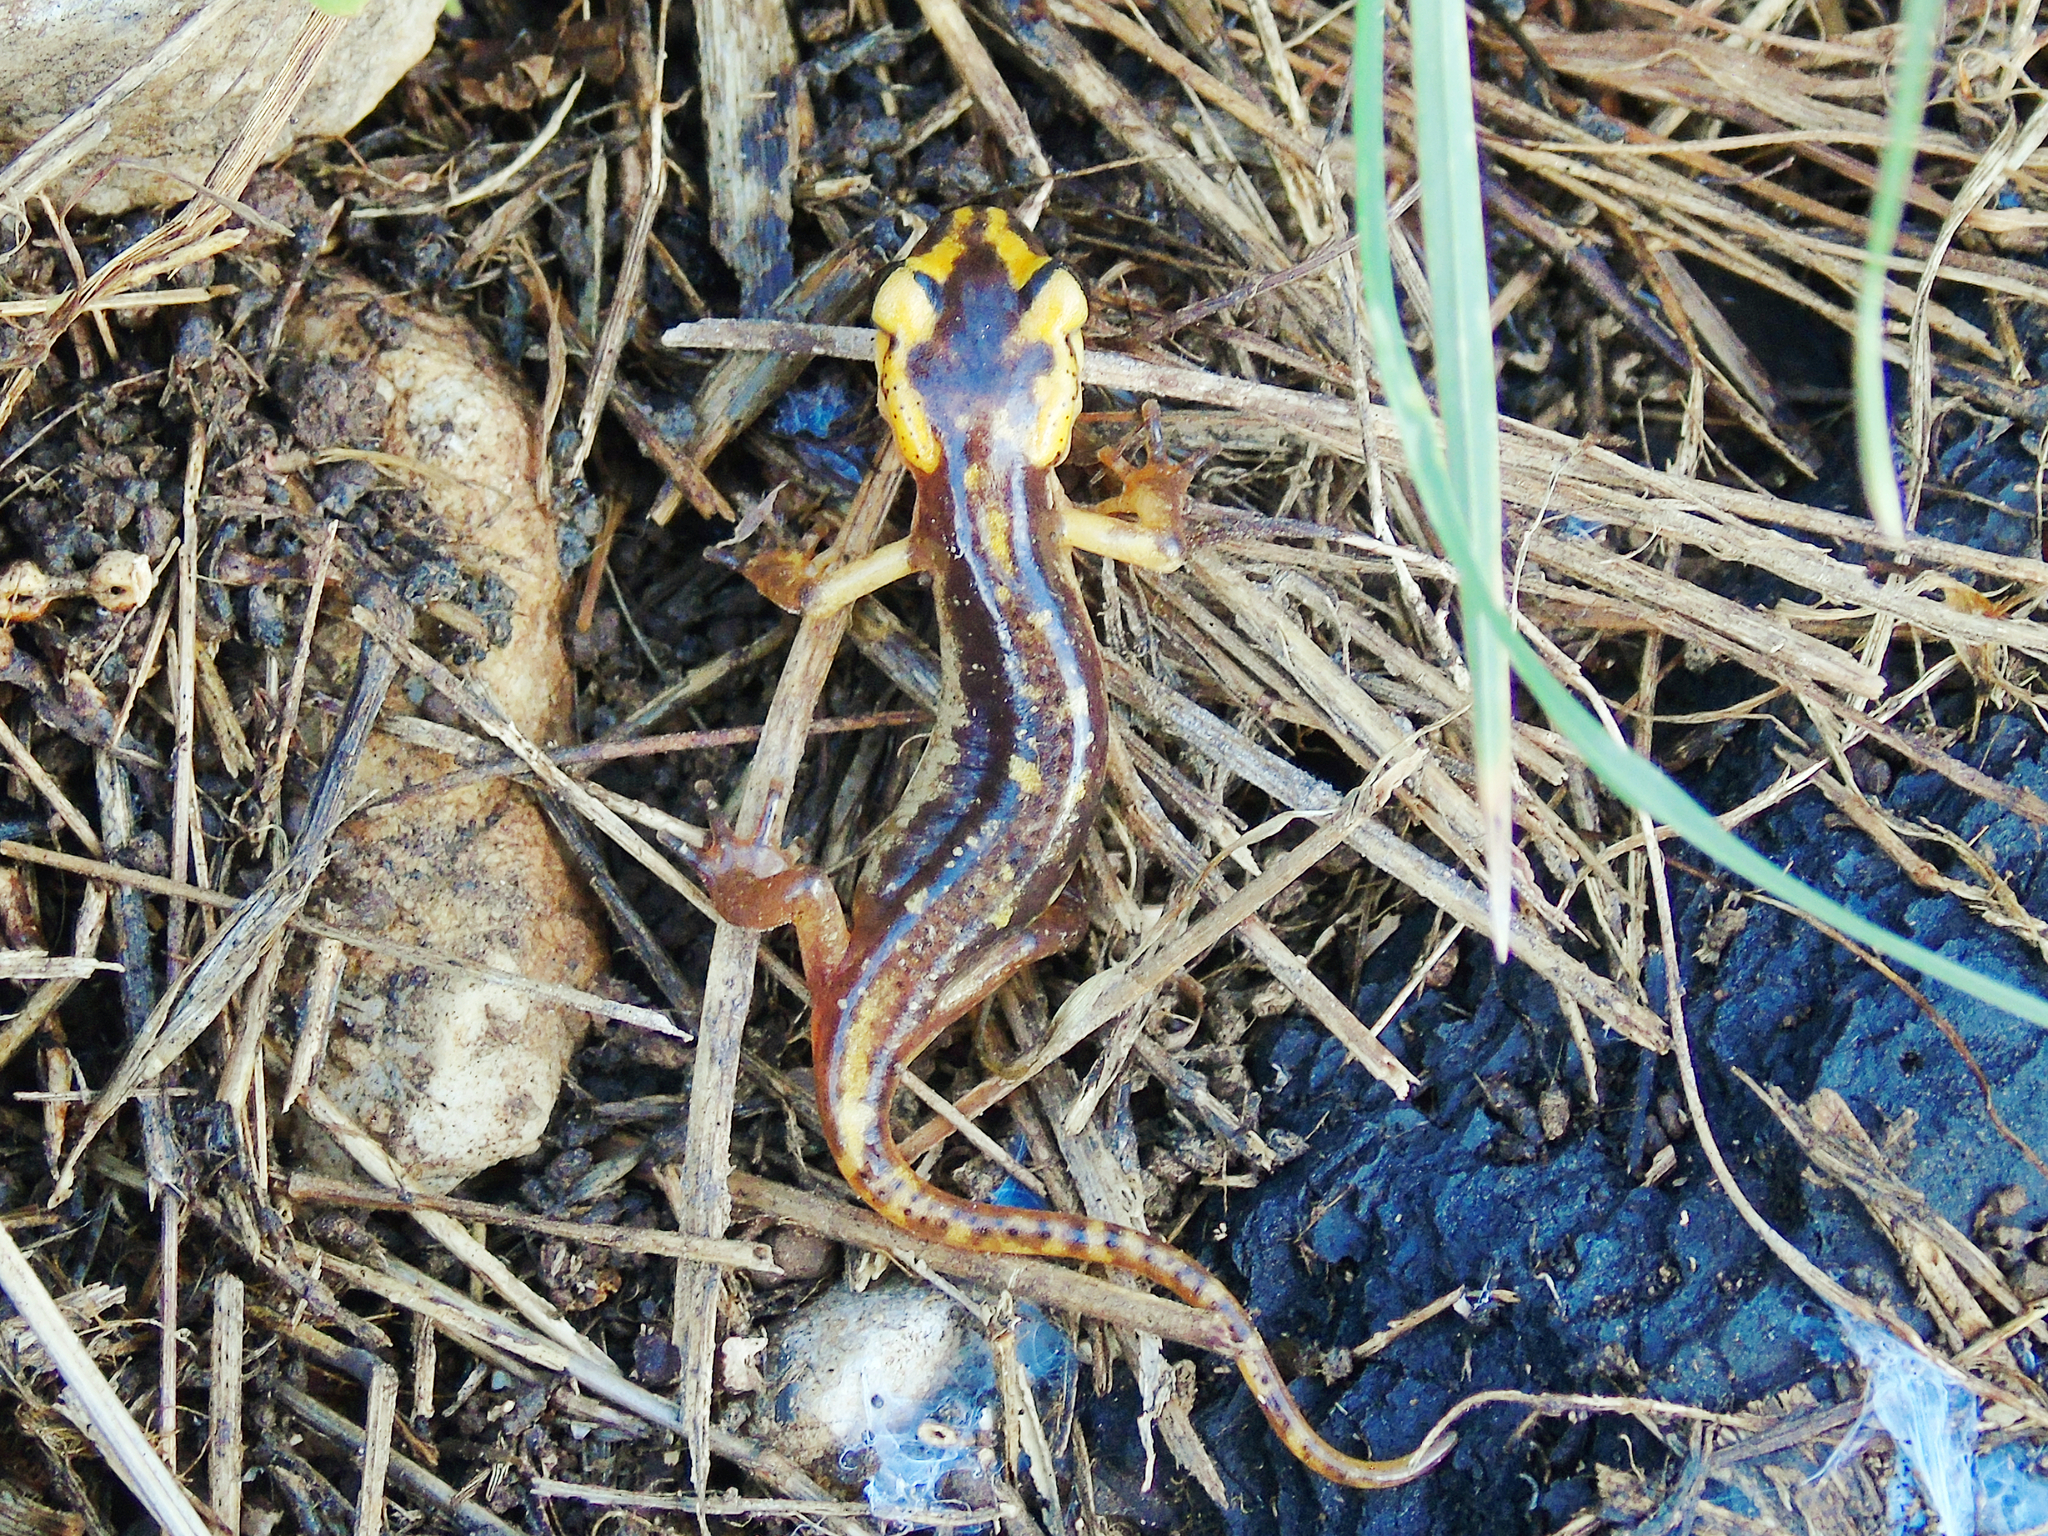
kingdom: Animalia
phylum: Chordata
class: Amphibia
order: Caudata
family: Salamandridae
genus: Lyciasalamandra
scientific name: Lyciasalamandra antalyana
